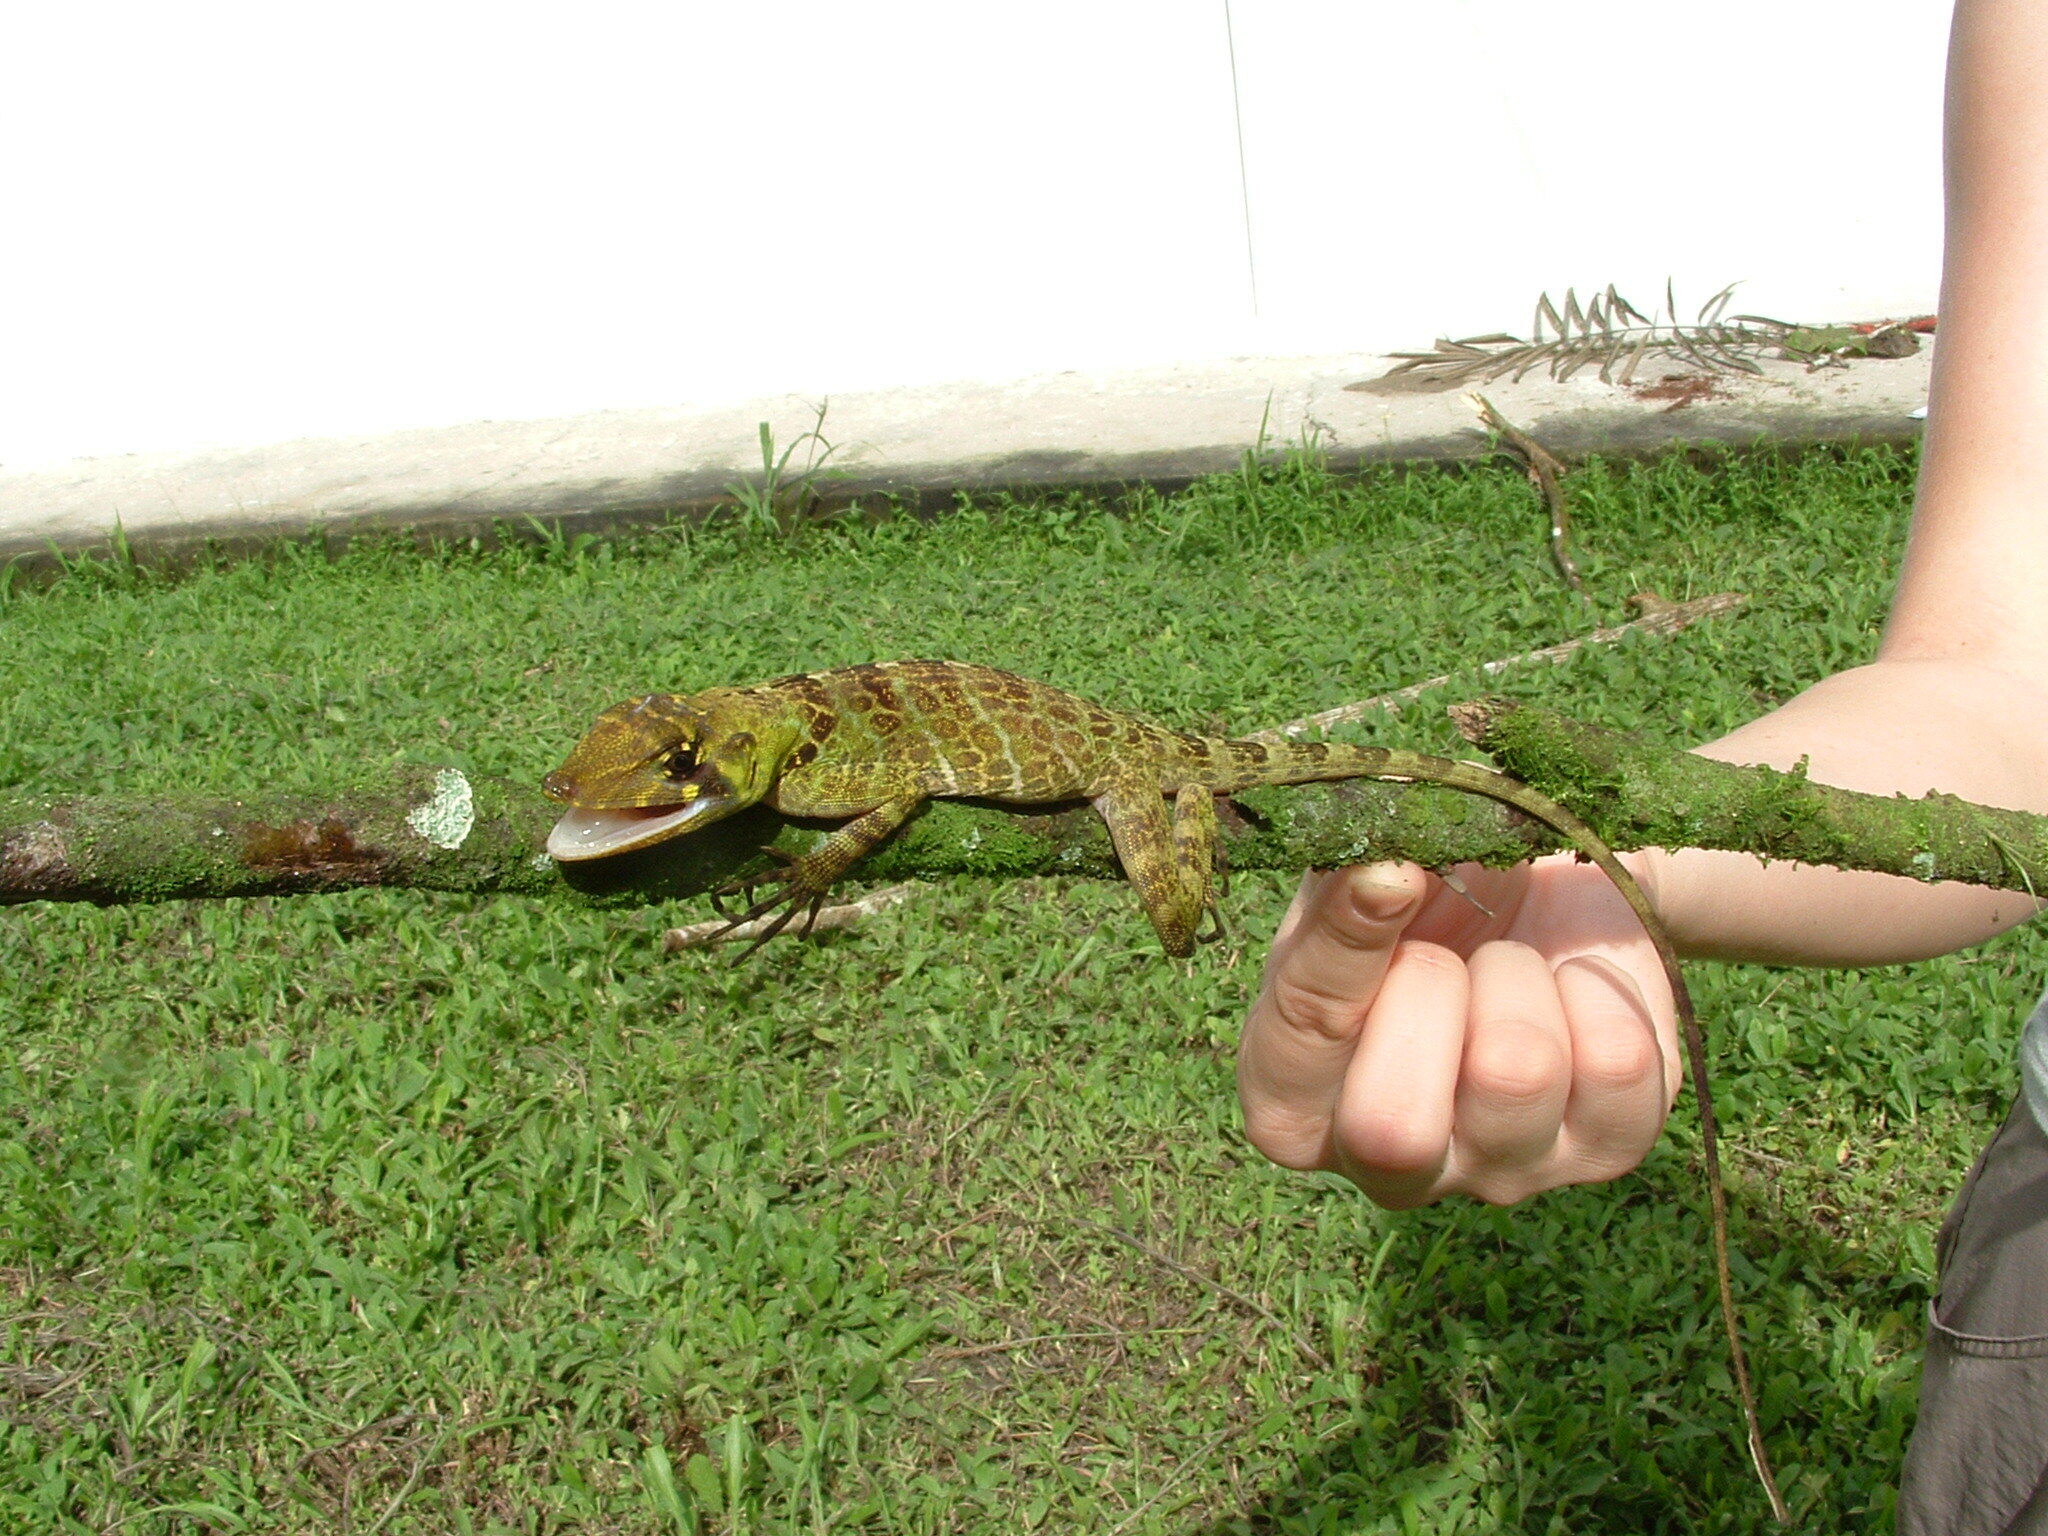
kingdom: Animalia
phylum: Chordata
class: Squamata
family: Dactyloidae
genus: Anolis
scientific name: Anolis princeps
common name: First anole
